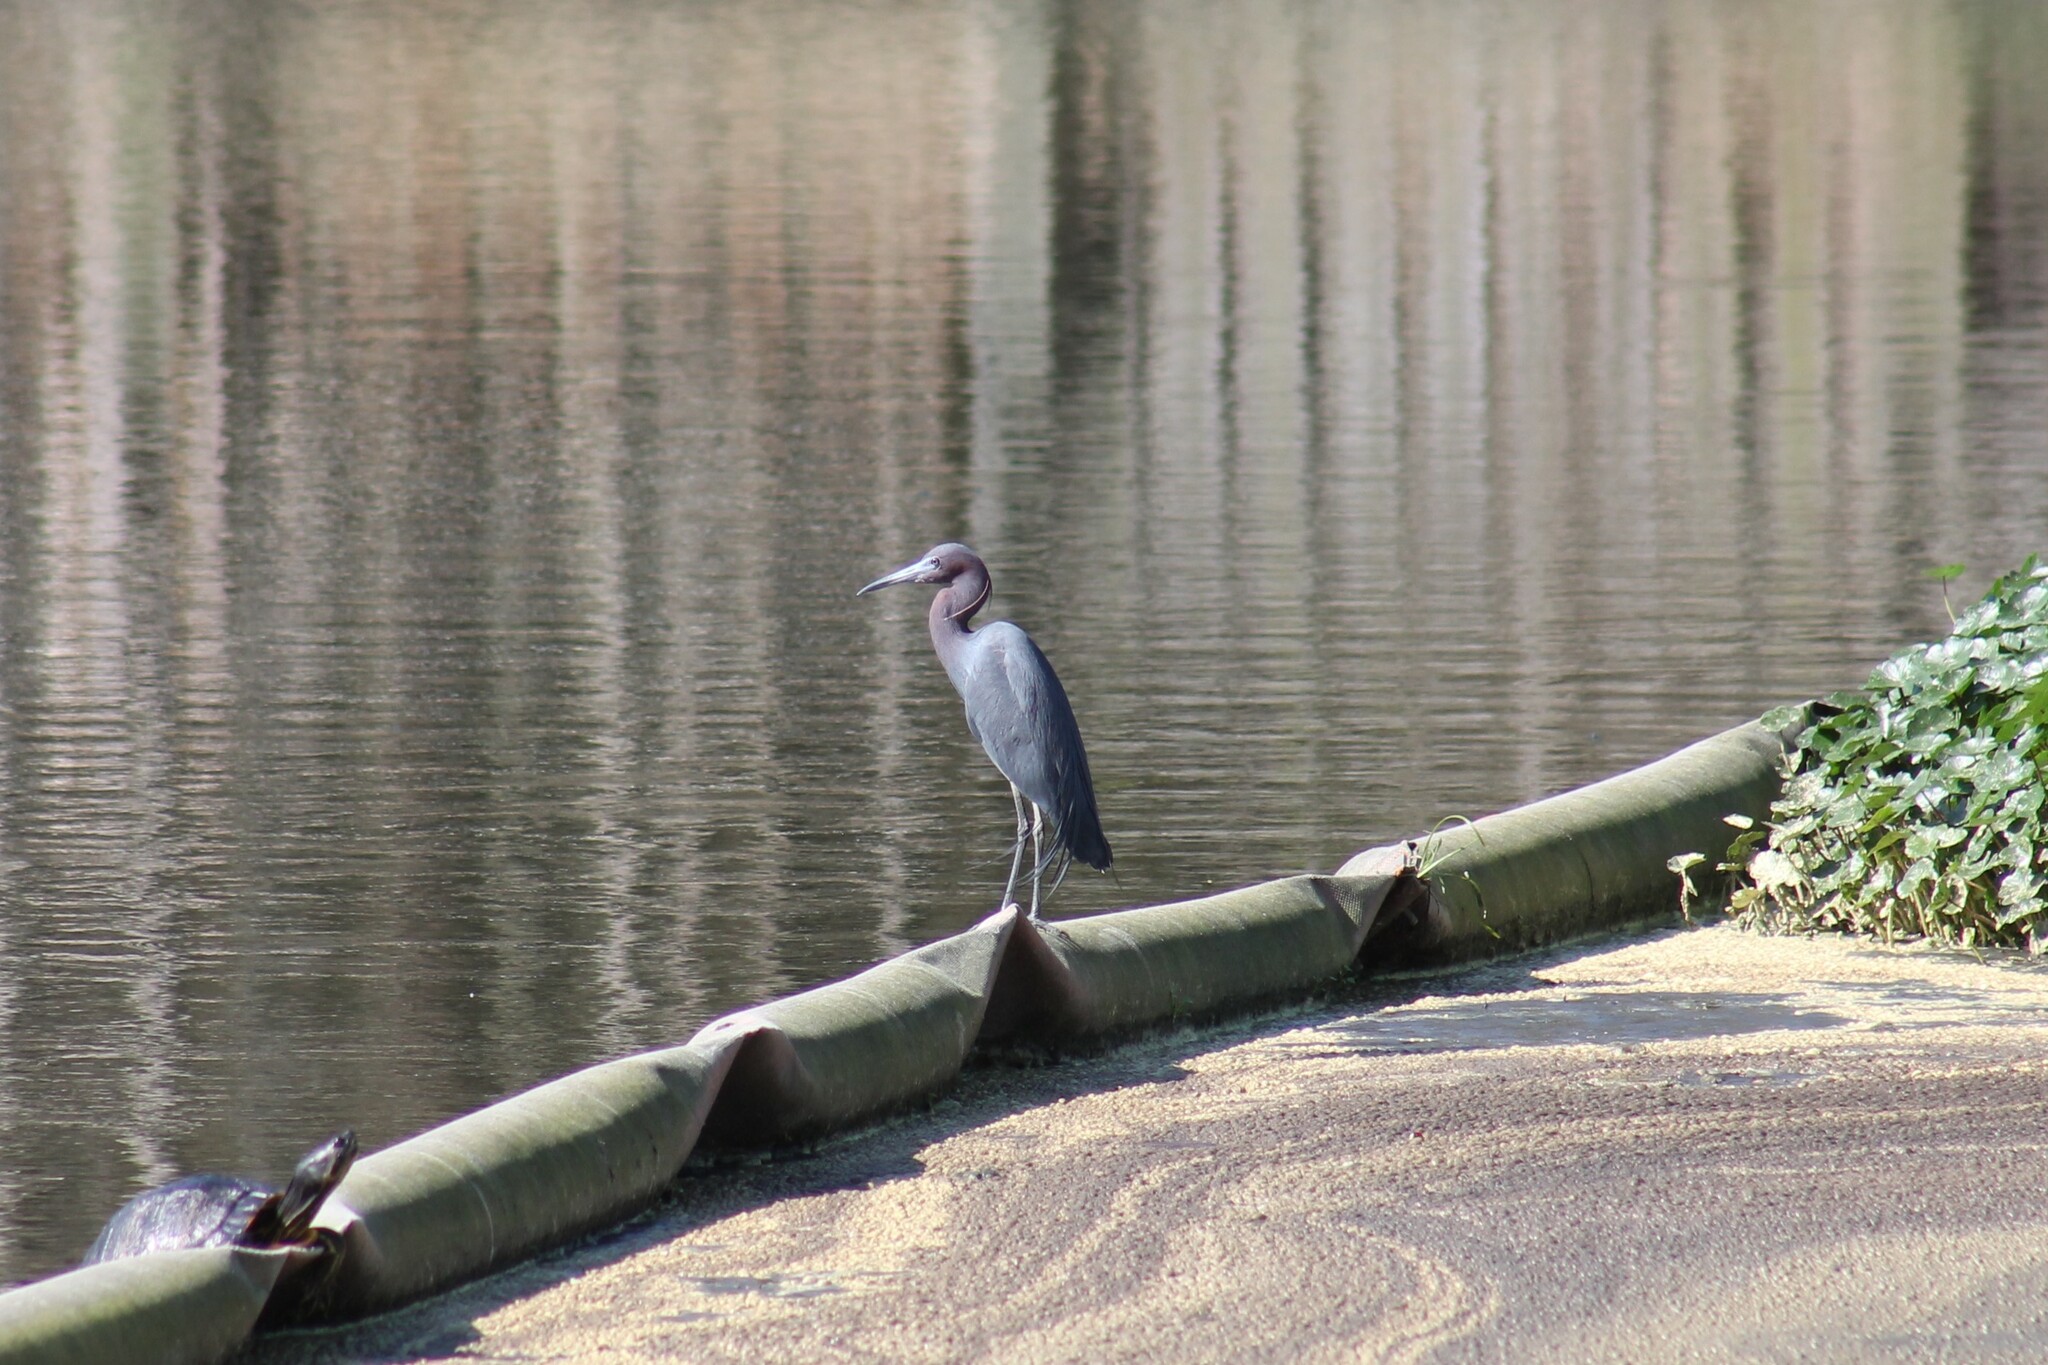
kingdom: Animalia
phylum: Chordata
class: Aves
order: Pelecaniformes
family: Ardeidae
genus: Egretta
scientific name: Egretta caerulea
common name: Little blue heron
